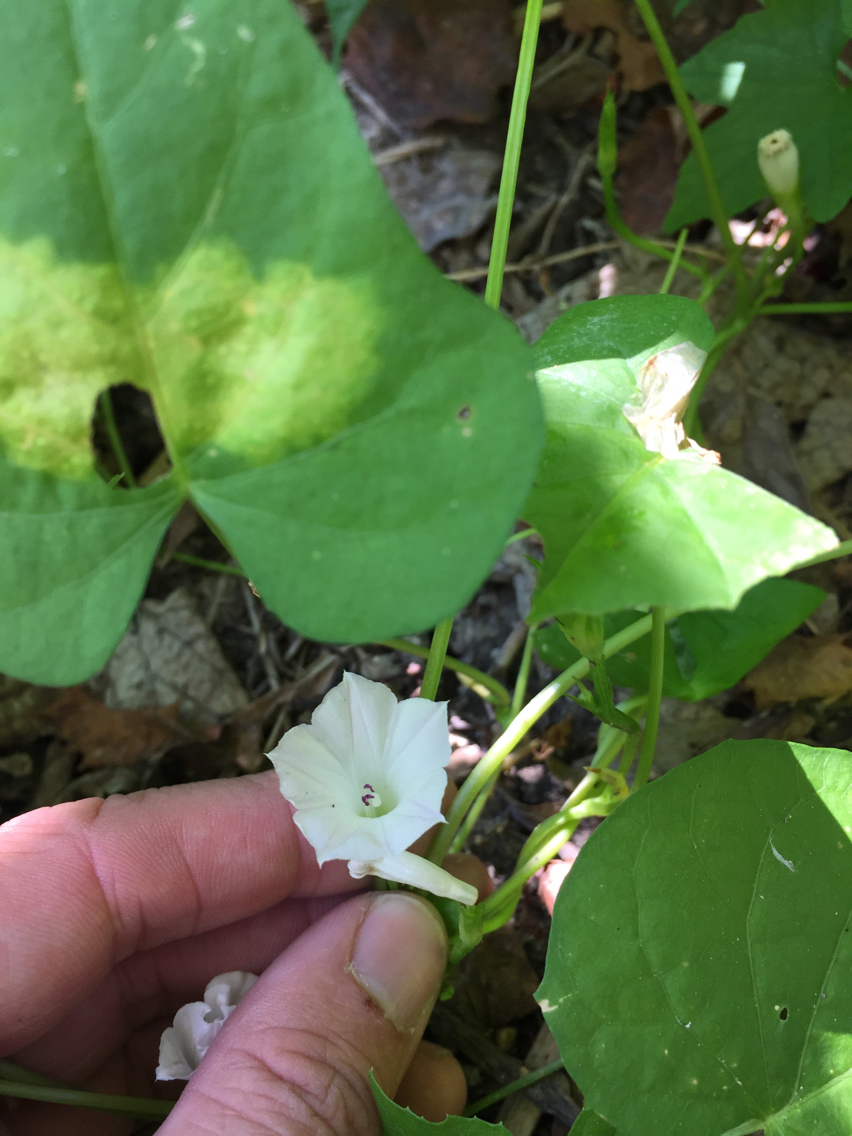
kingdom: Plantae
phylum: Tracheophyta
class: Magnoliopsida
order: Solanales
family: Convolvulaceae
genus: Ipomoea
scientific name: Ipomoea lacunosa
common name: White morning-glory
